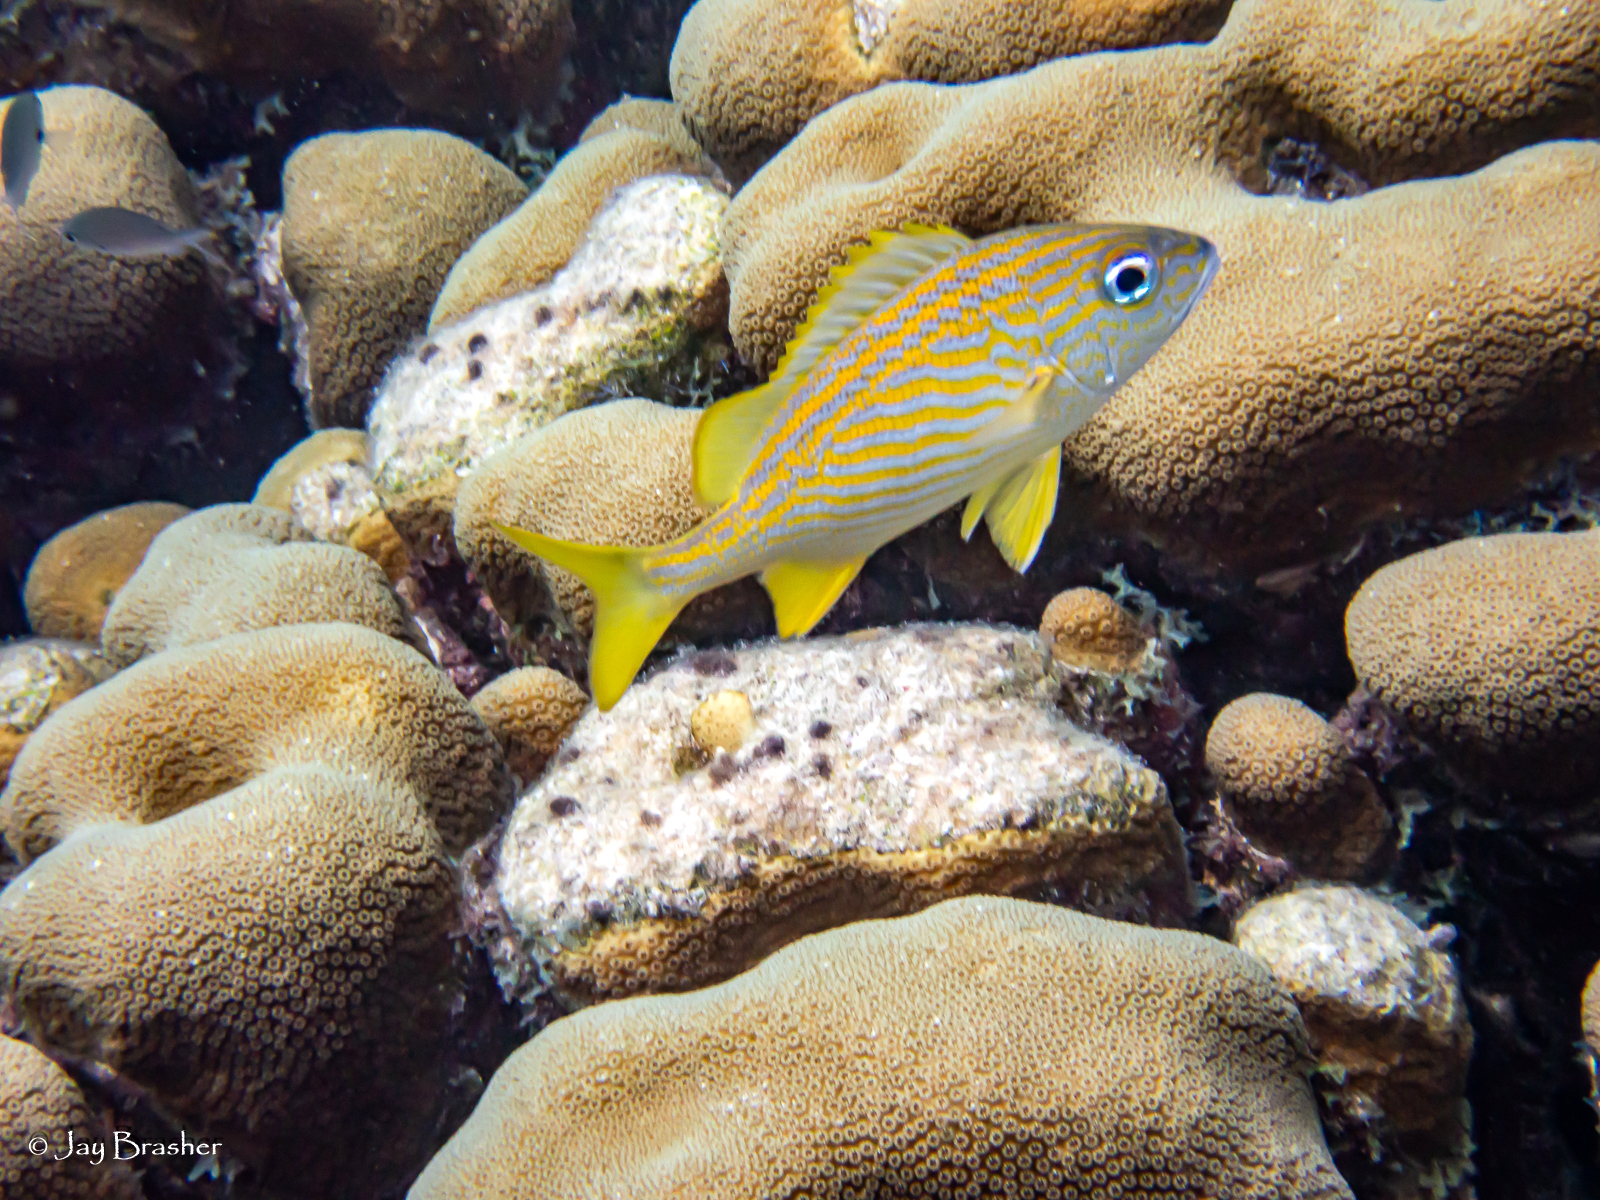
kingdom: Animalia
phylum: Chordata
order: Perciformes
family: Haemulidae
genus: Haemulon
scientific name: Haemulon flavolineatum
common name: French grunt
